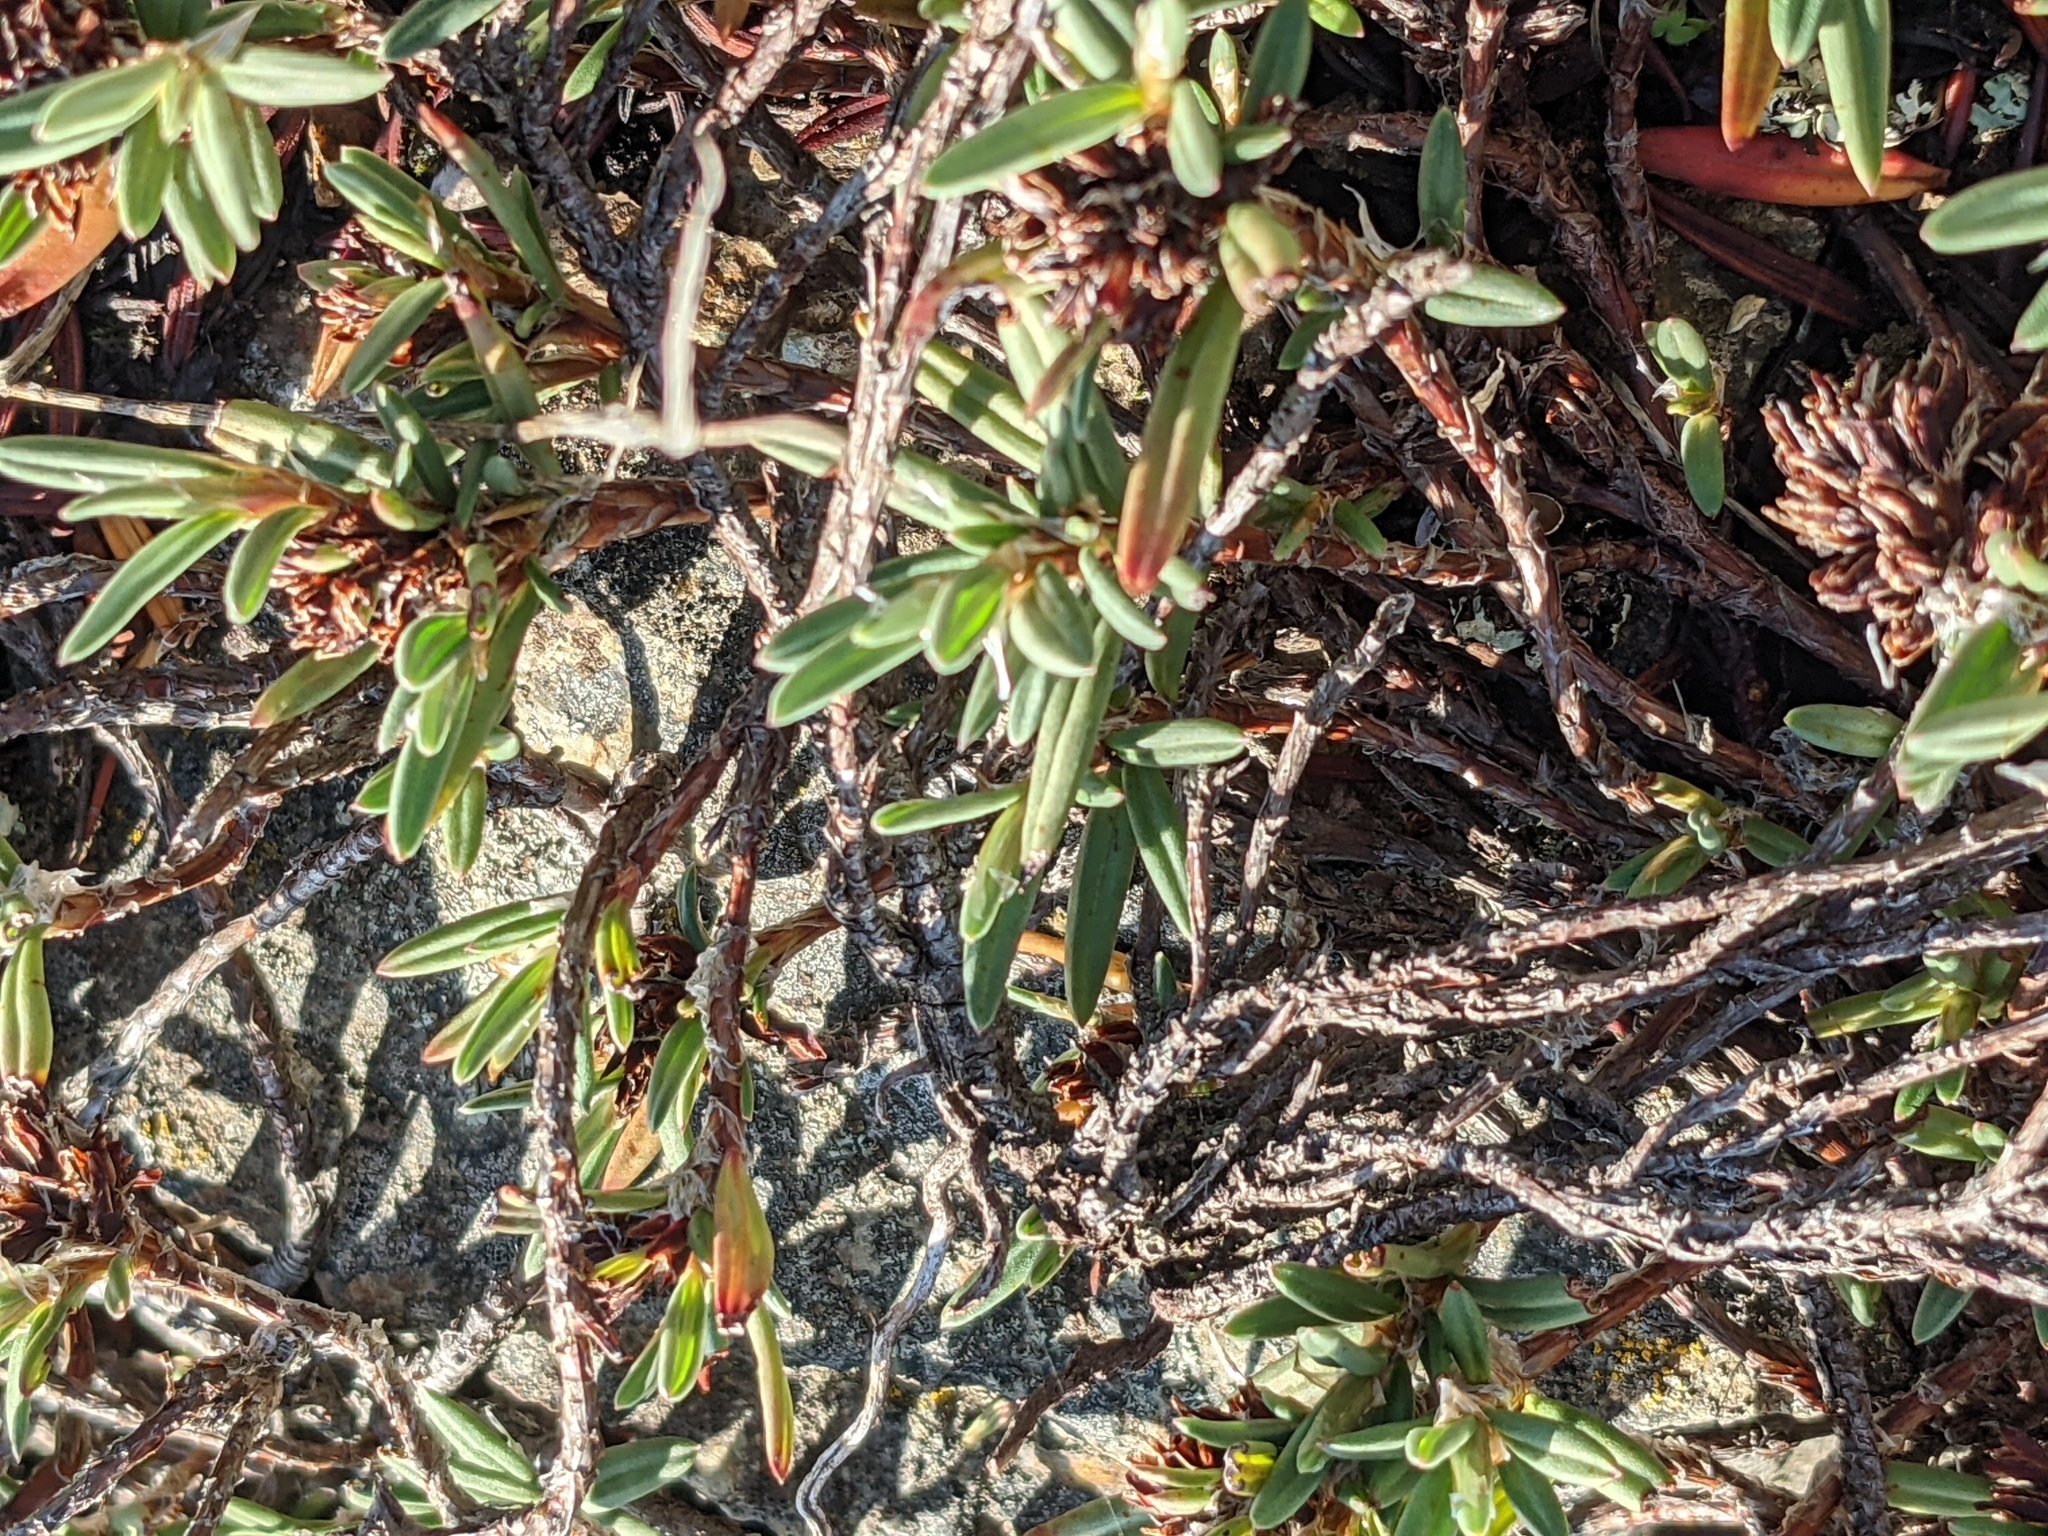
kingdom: Plantae
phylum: Tracheophyta
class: Magnoliopsida
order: Caryophyllales
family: Polygonaceae
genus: Polygonum
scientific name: Polygonum paronychia
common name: Dune knotweed
